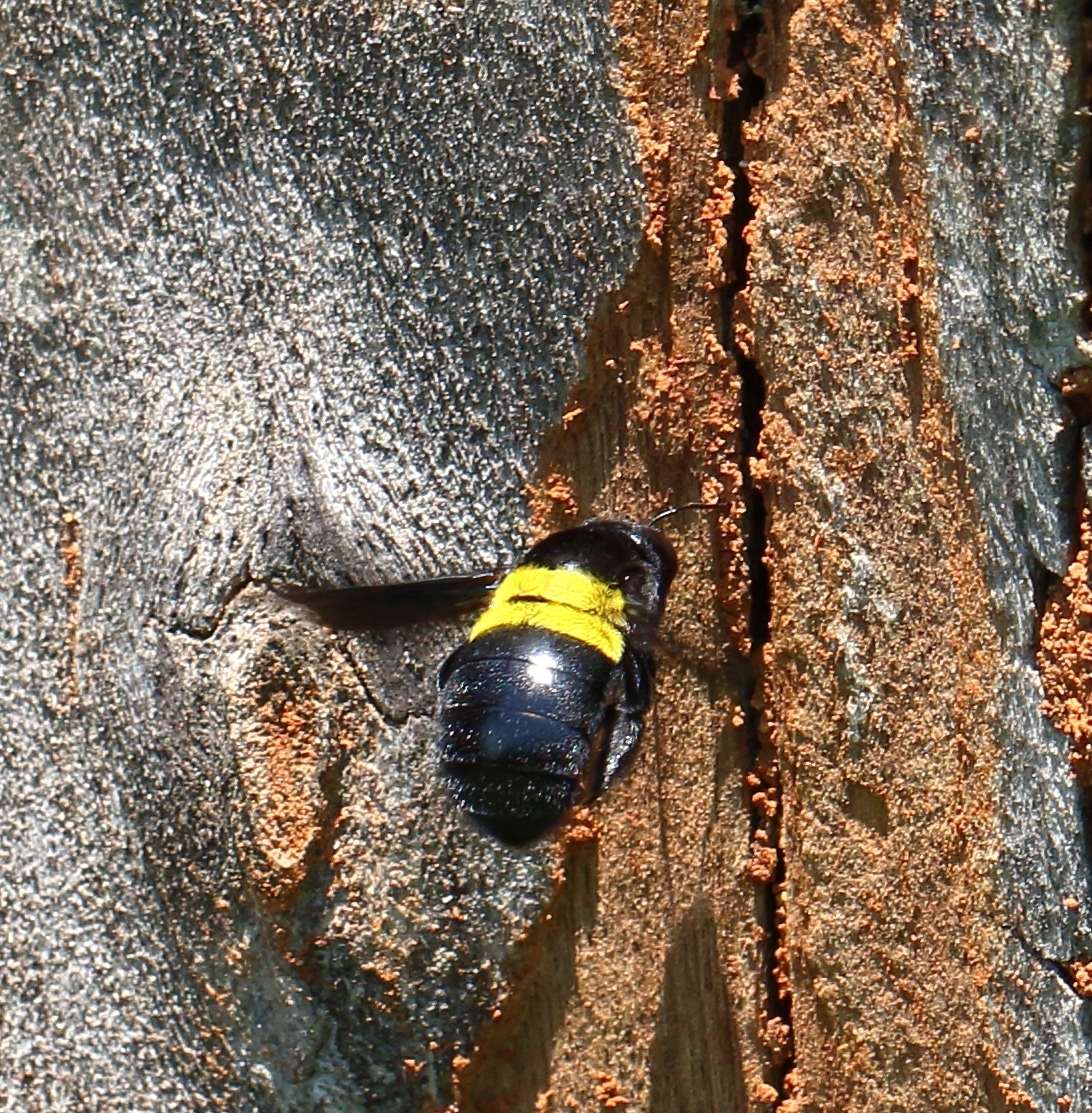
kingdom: Animalia
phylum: Arthropoda
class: Insecta
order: Hymenoptera
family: Apidae
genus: Xylocopa
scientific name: Xylocopa caffra
